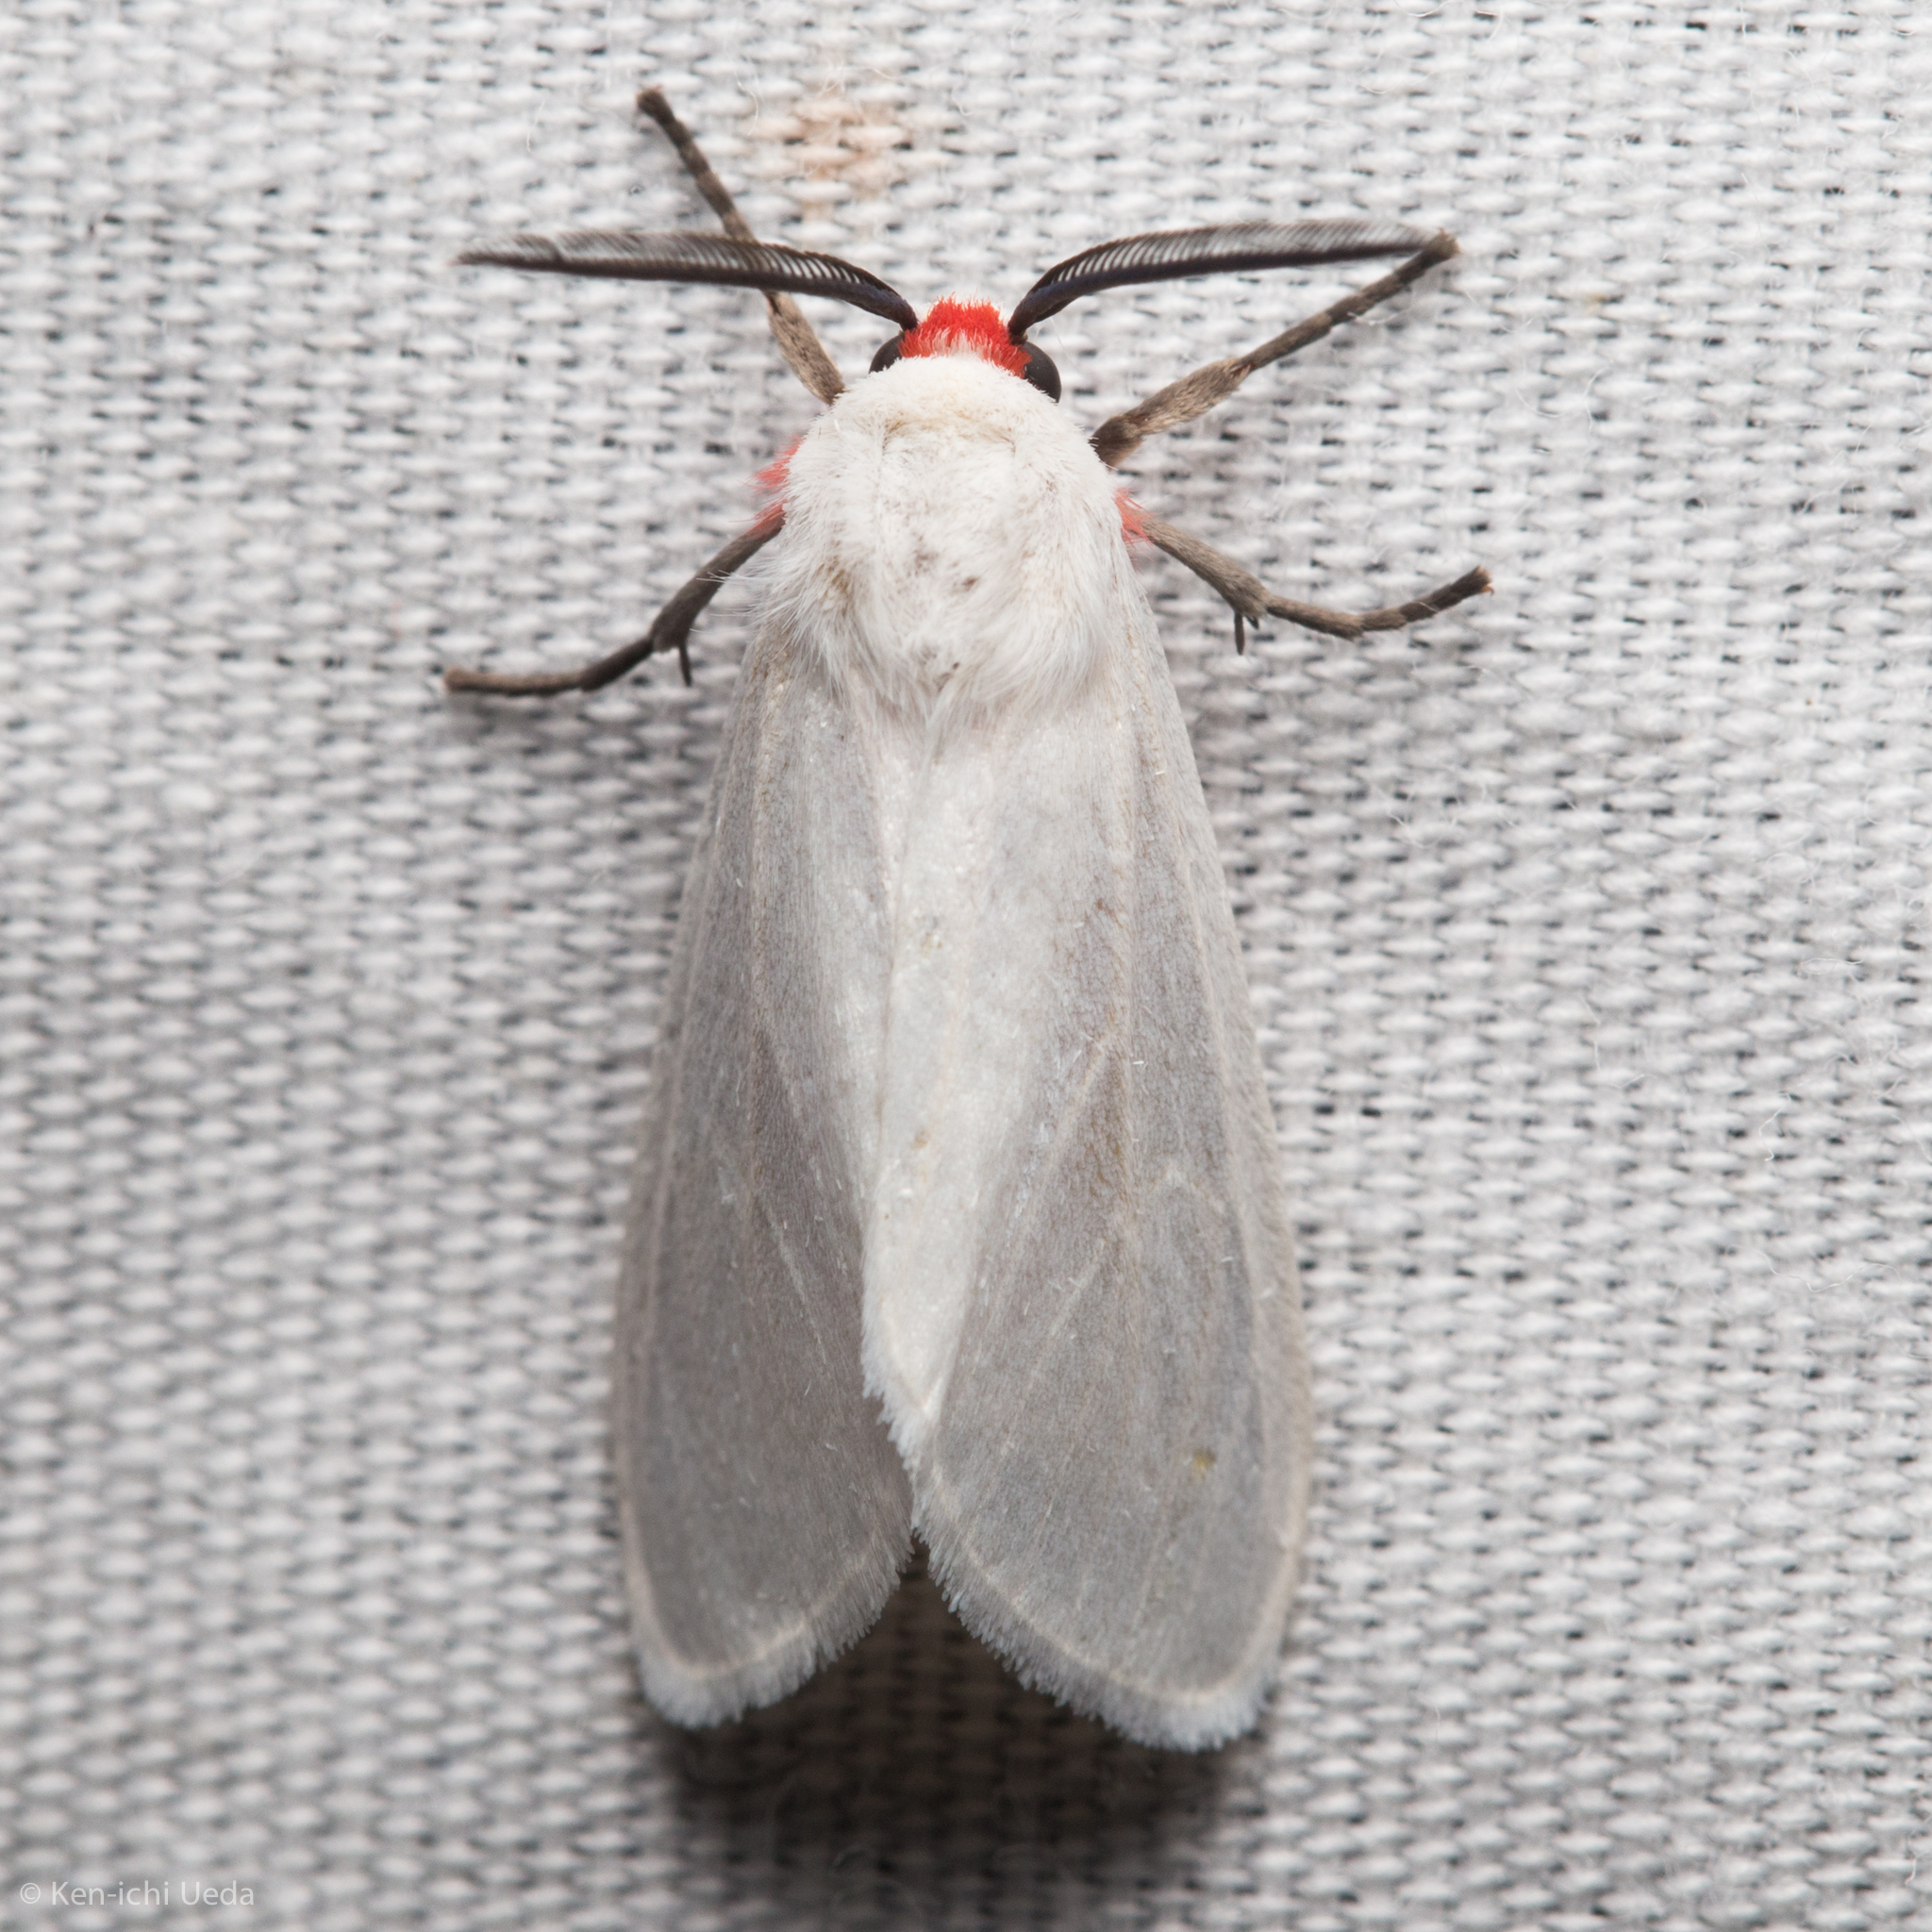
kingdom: Animalia
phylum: Arthropoda
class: Insecta
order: Lepidoptera
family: Erebidae
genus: Pygarctia
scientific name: Pygarctia roseicapitis
